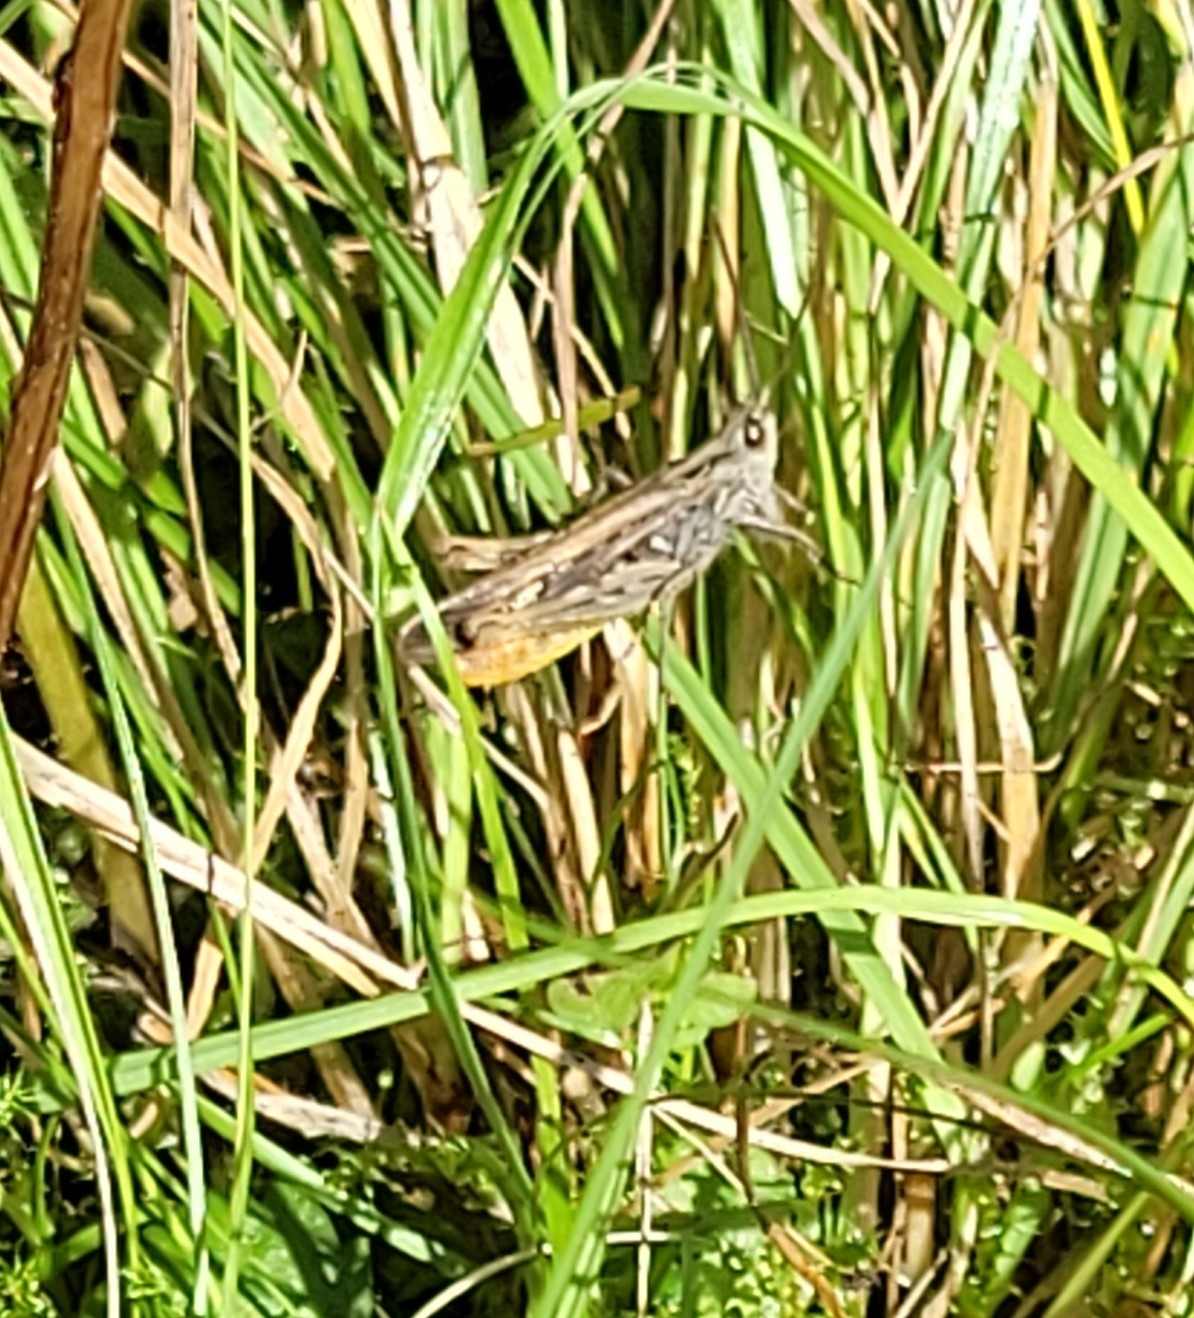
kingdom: Animalia
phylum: Arthropoda
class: Insecta
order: Orthoptera
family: Acrididae
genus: Chorthippus
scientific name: Chorthippus brunneus
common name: Field grasshopper
